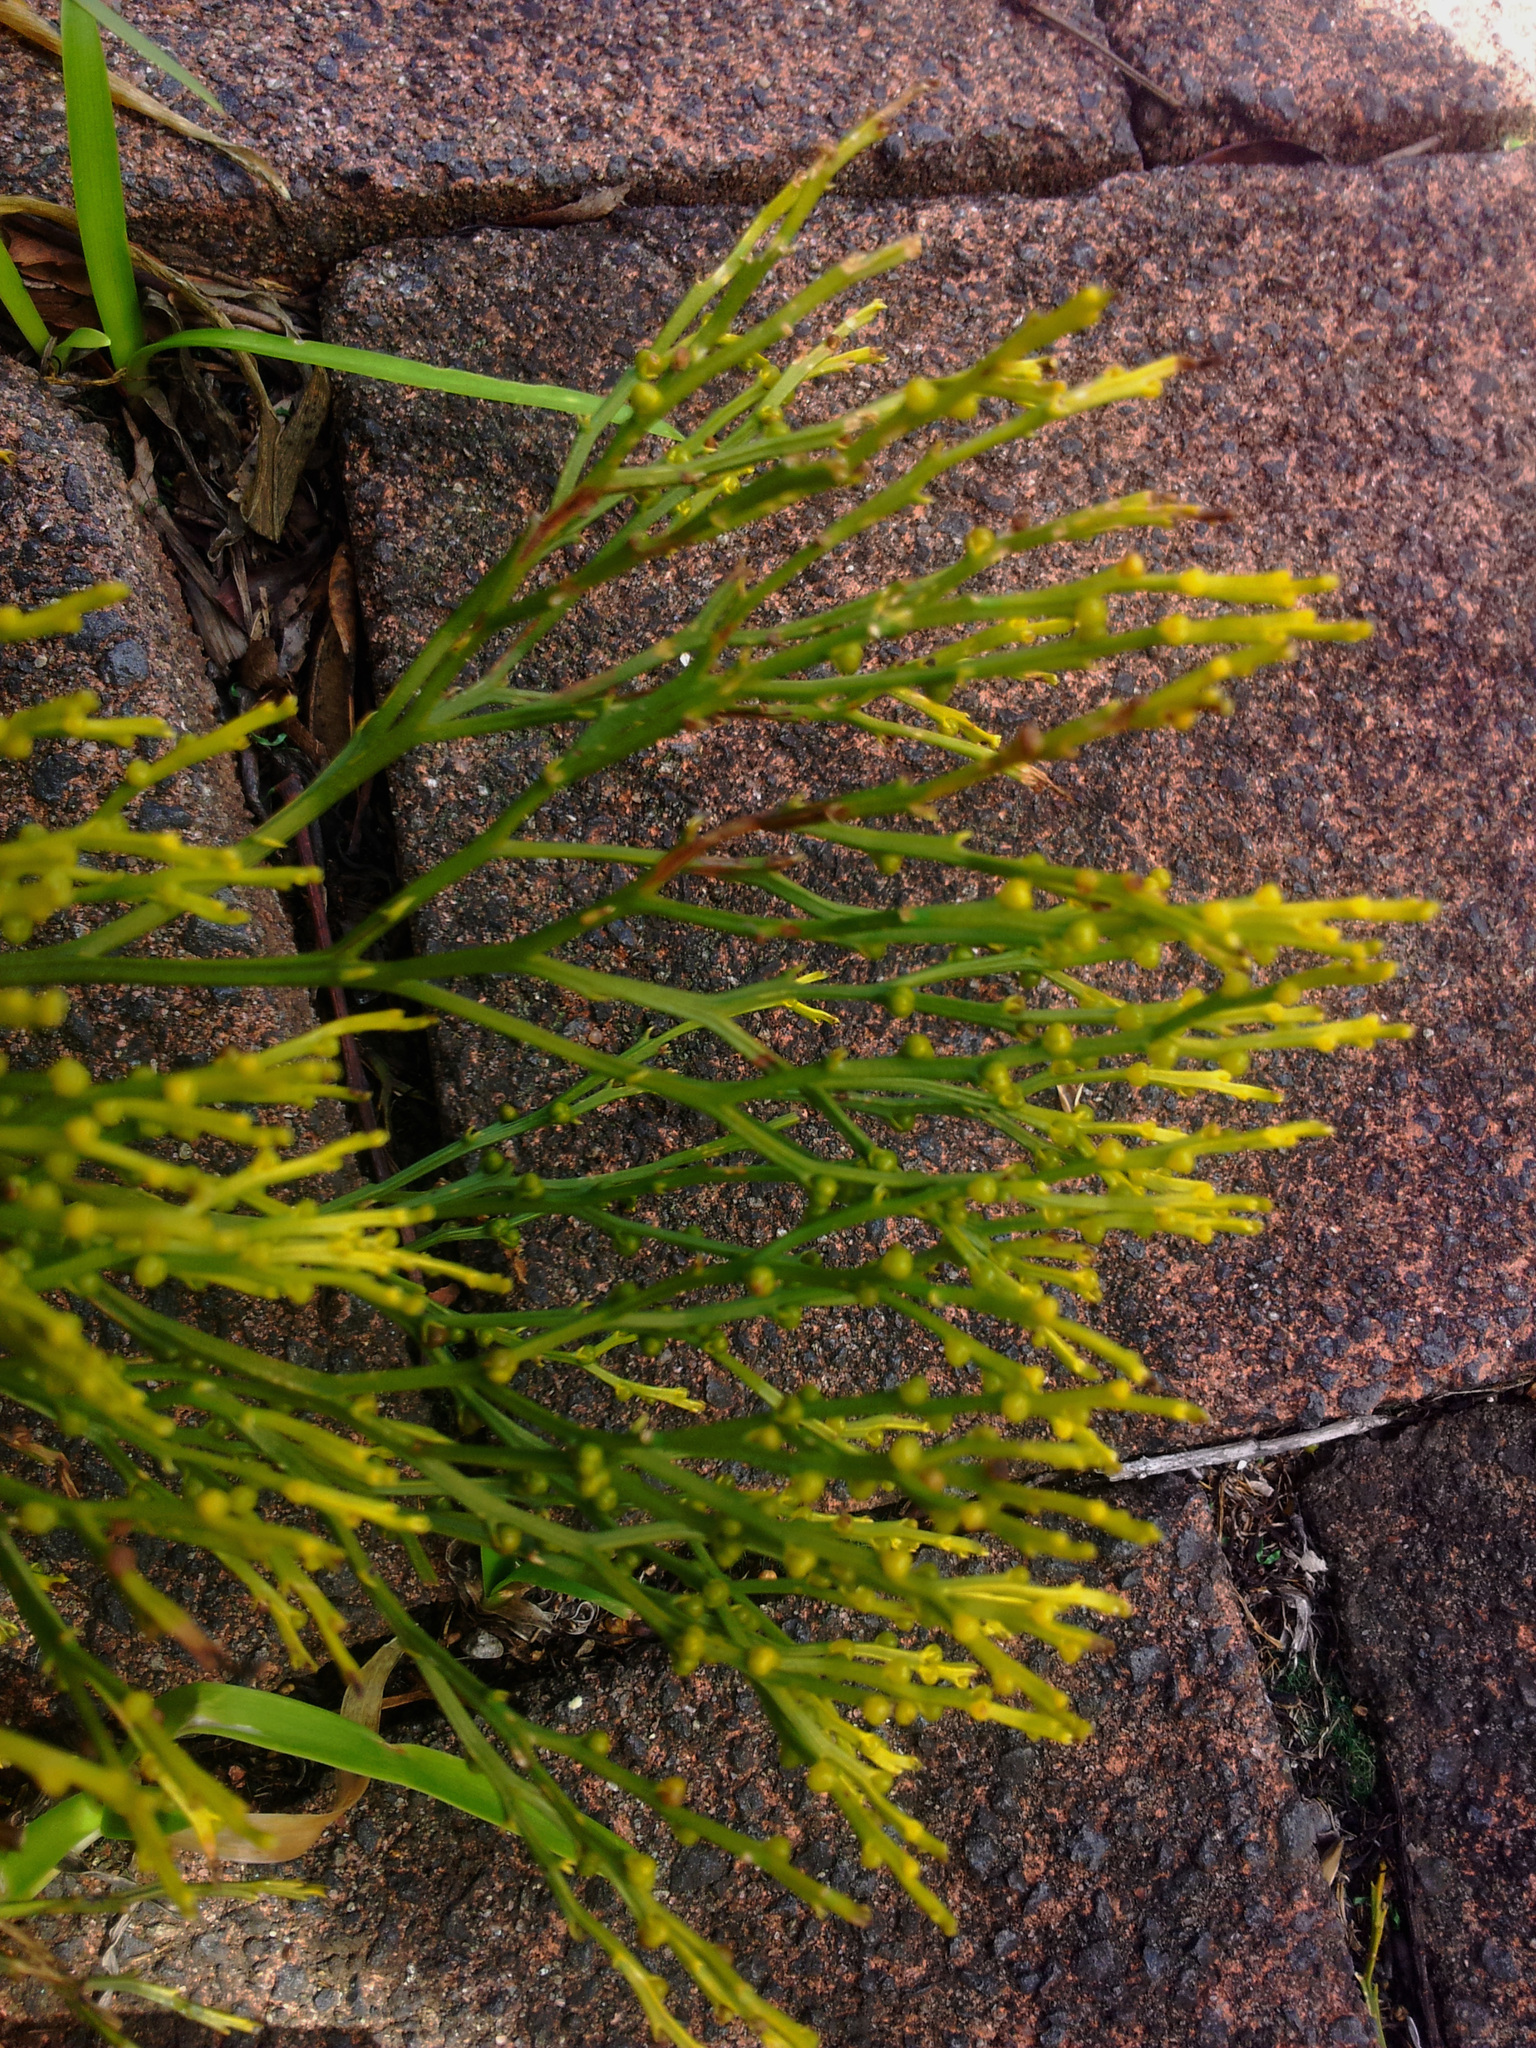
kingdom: Plantae
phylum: Tracheophyta
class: Polypodiopsida
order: Psilotales
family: Psilotaceae
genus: Psilotum
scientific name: Psilotum nudum
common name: Skeleton fork fern
